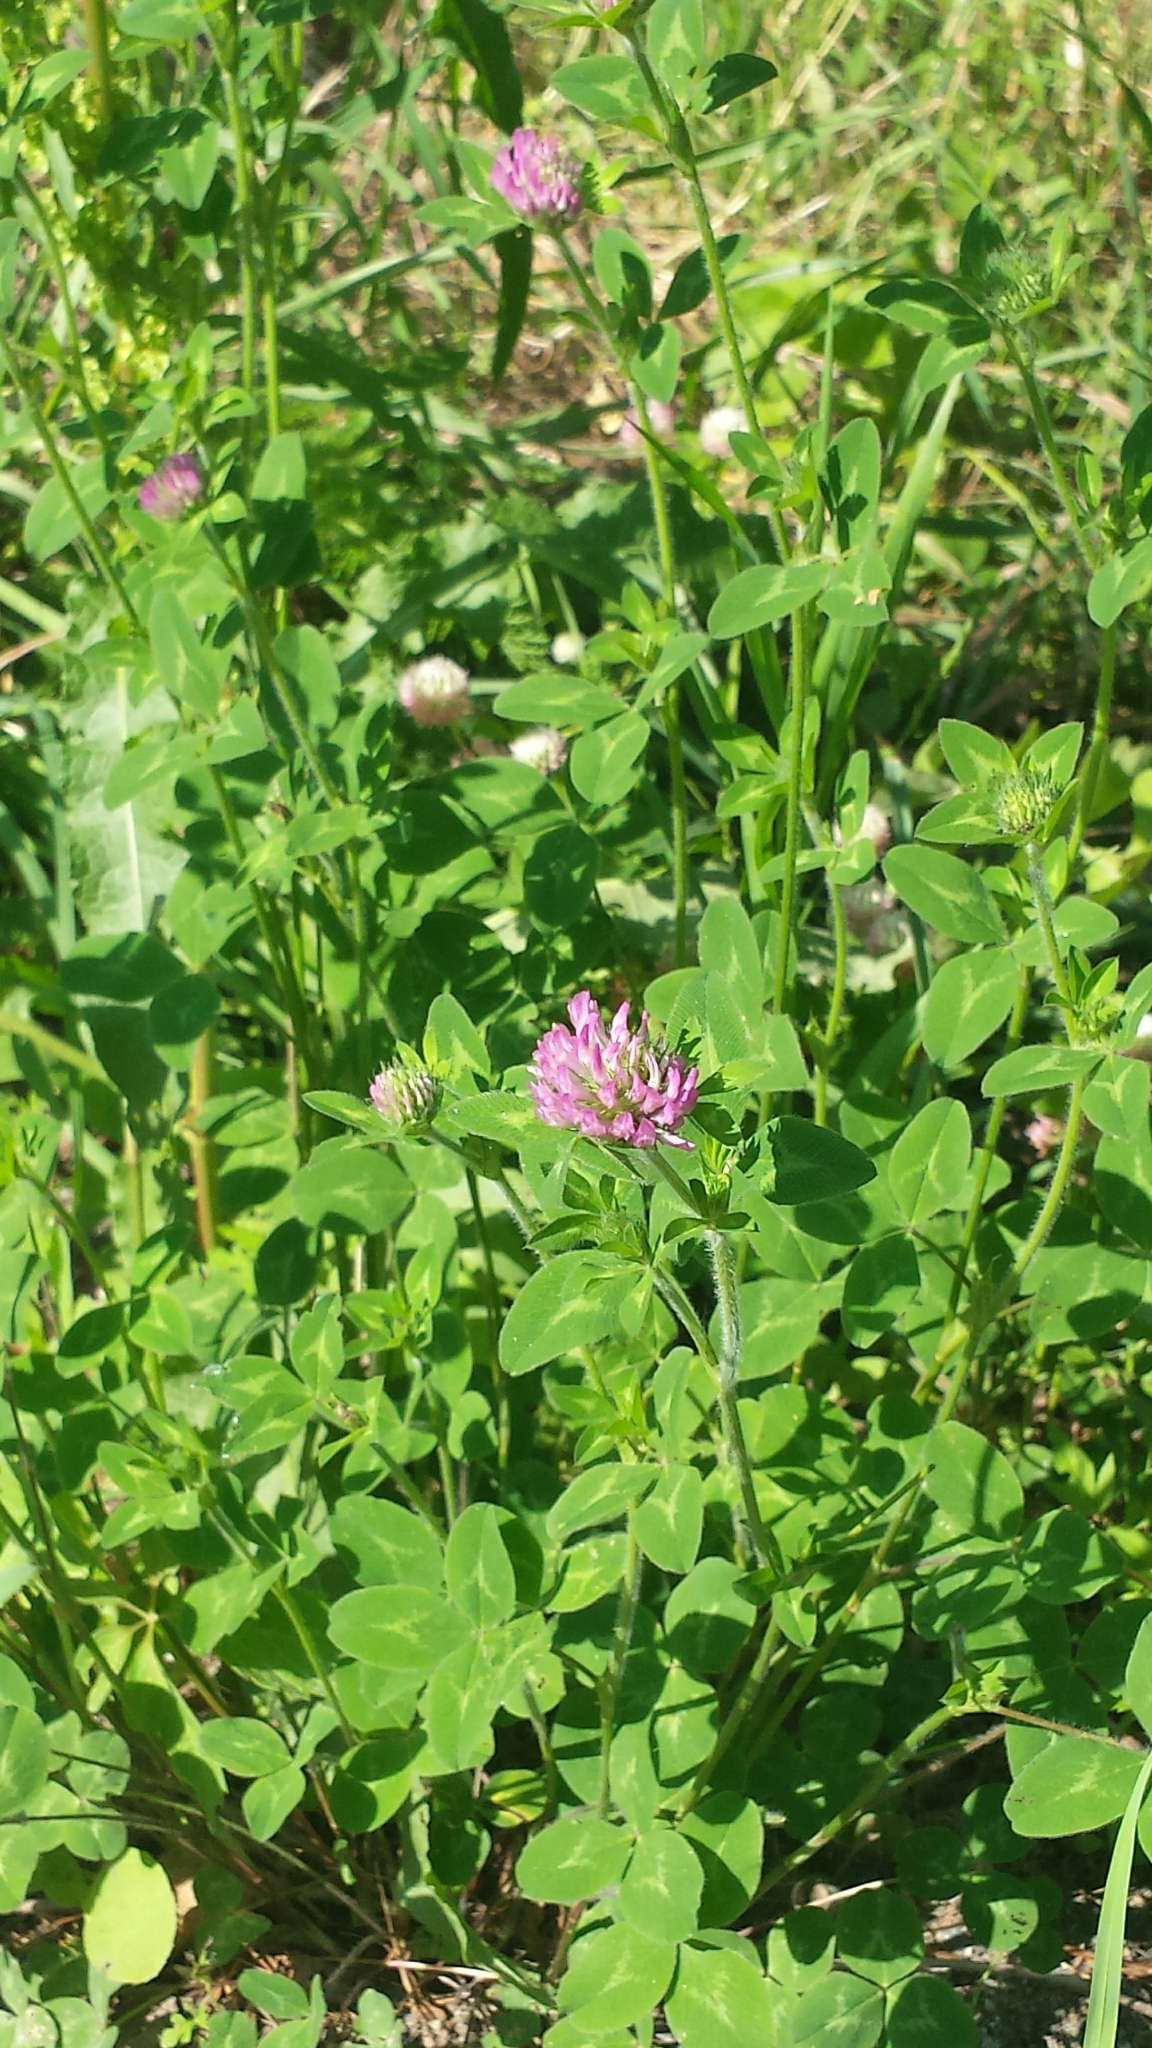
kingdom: Plantae
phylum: Tracheophyta
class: Magnoliopsida
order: Fabales
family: Fabaceae
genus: Trifolium
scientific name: Trifolium pratense
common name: Red clover
